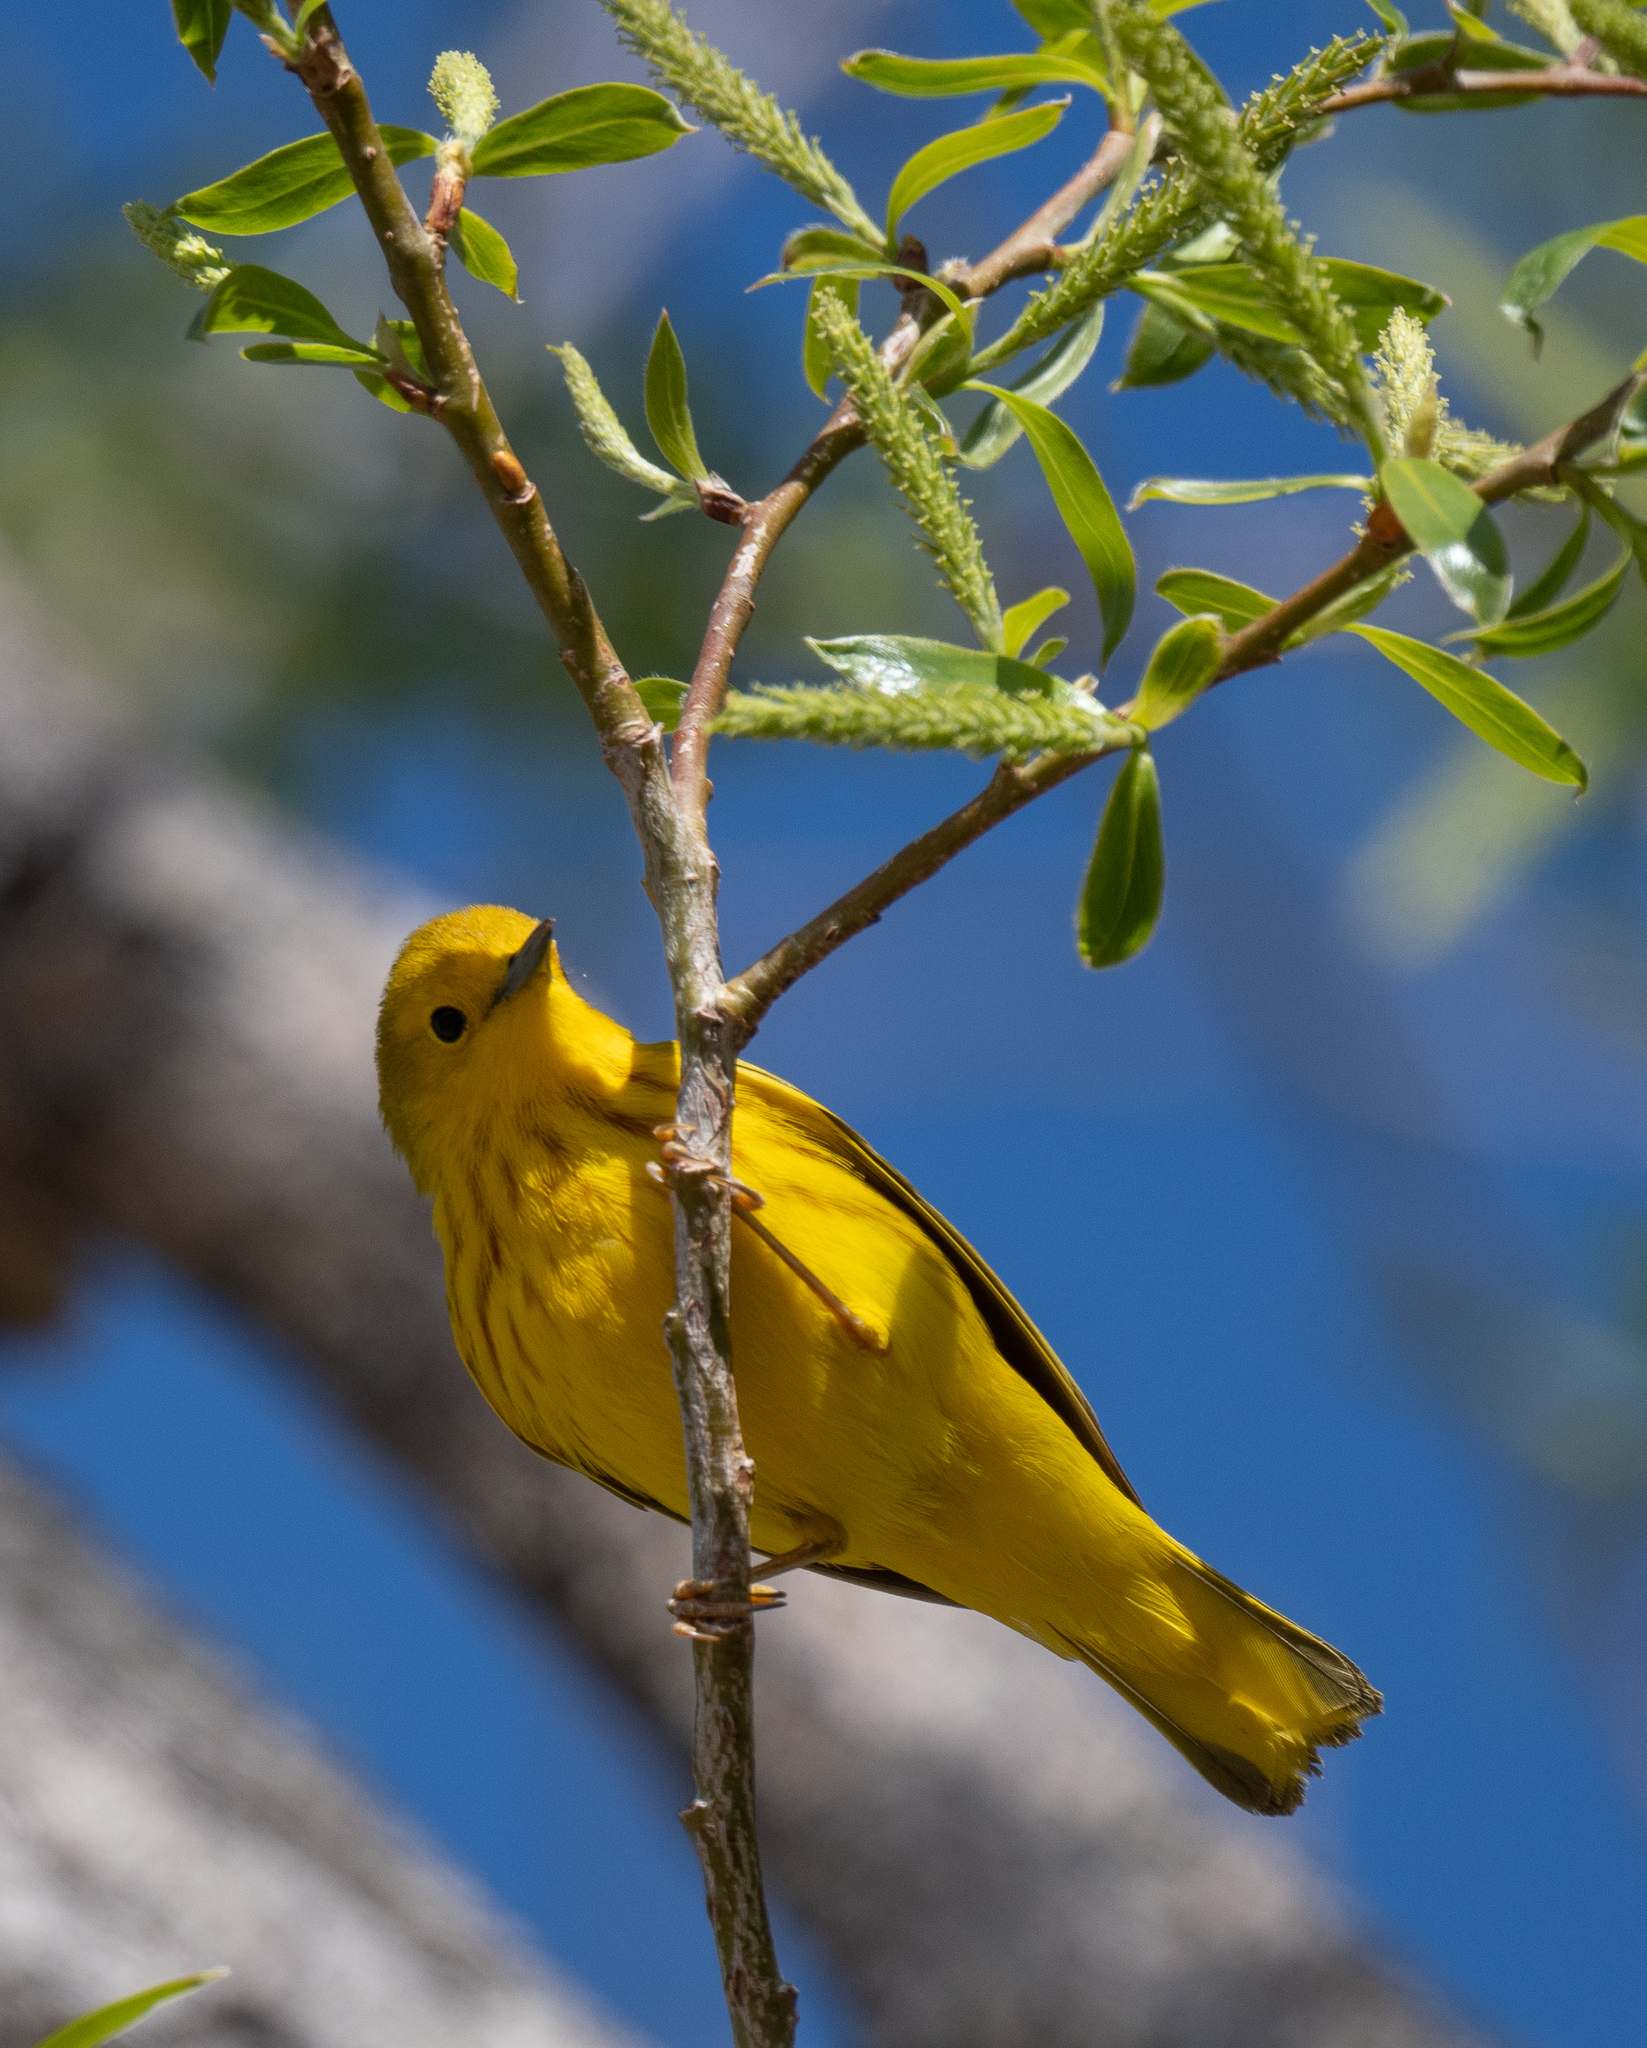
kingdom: Animalia
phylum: Chordata
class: Aves
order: Passeriformes
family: Parulidae
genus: Setophaga
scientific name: Setophaga petechia
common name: Yellow warbler
